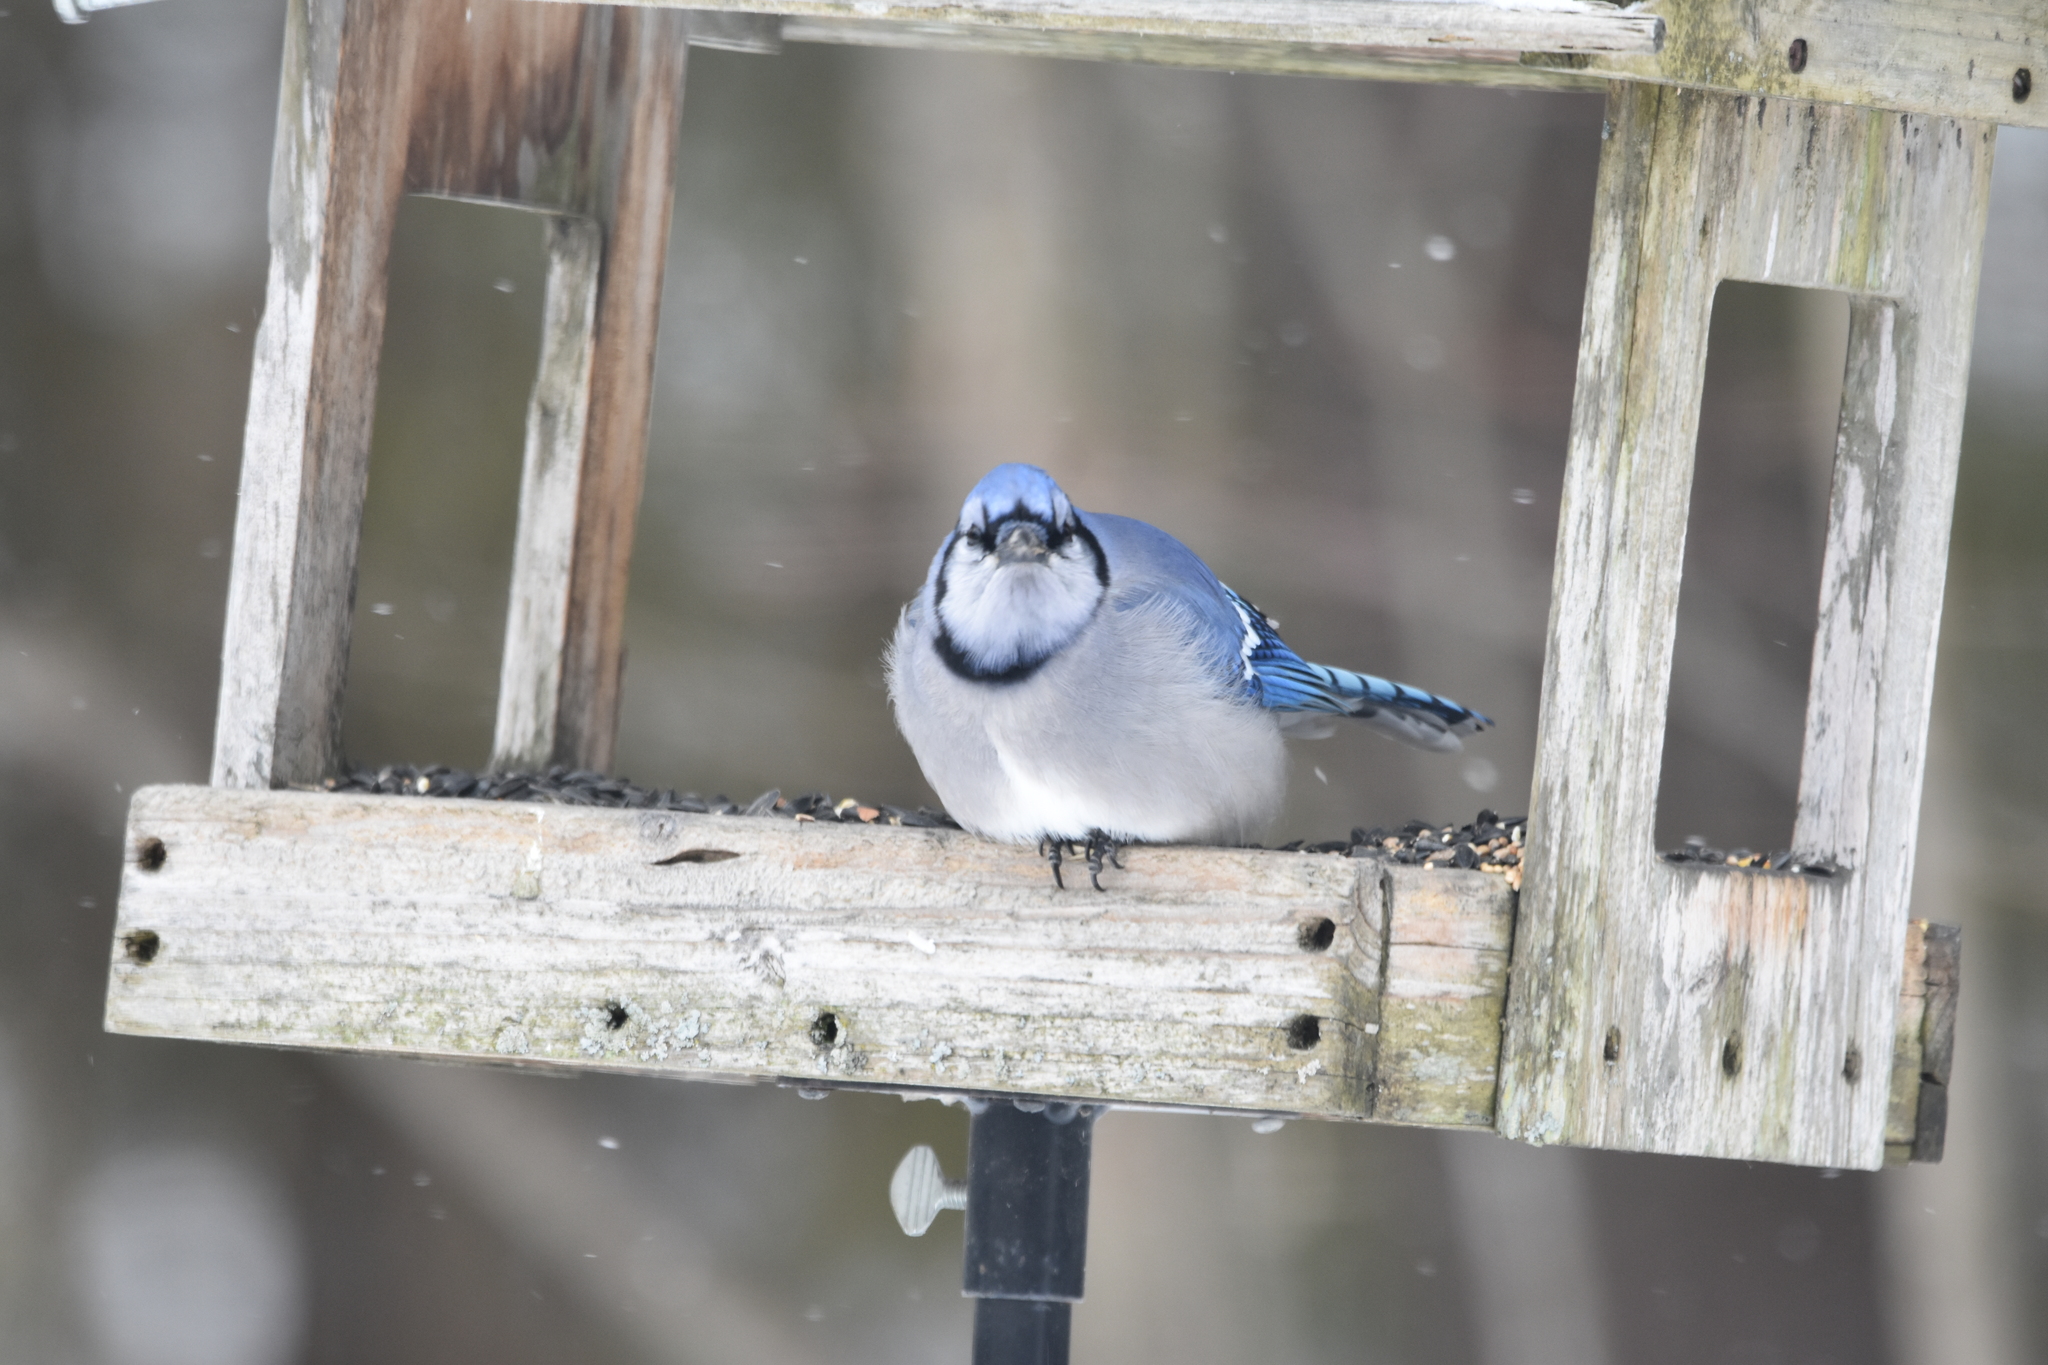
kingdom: Animalia
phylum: Chordata
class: Aves
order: Passeriformes
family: Corvidae
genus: Cyanocitta
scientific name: Cyanocitta cristata
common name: Blue jay
